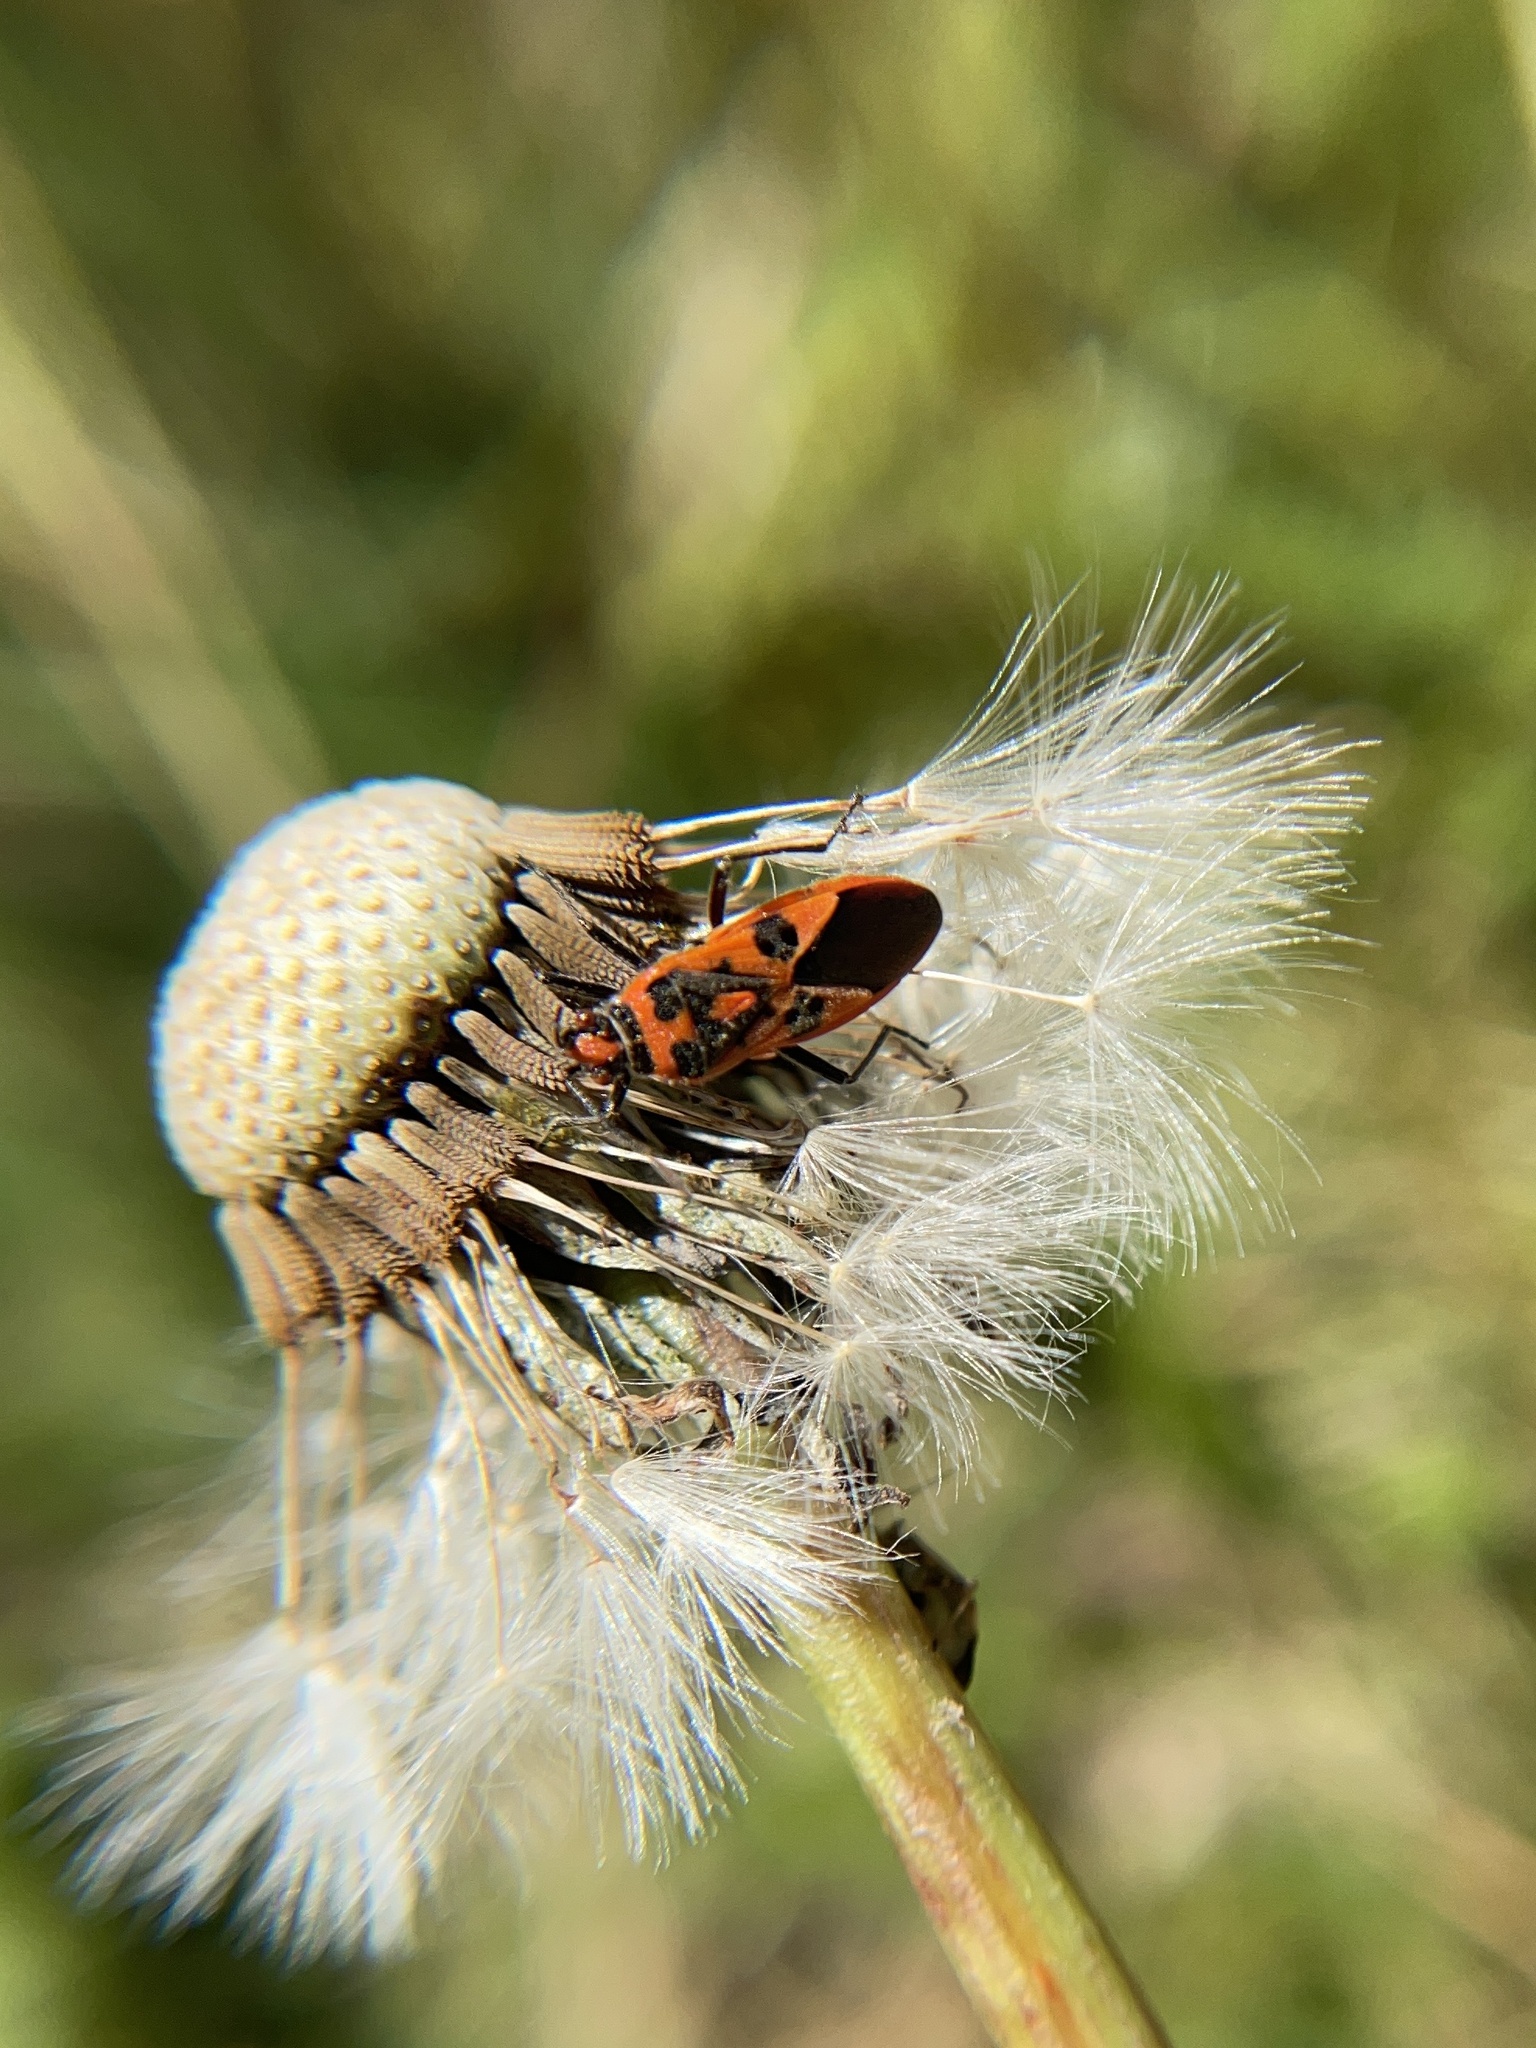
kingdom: Animalia
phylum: Arthropoda
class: Insecta
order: Hemiptera
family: Rhopalidae
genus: Corizus
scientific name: Corizus hyoscyami
